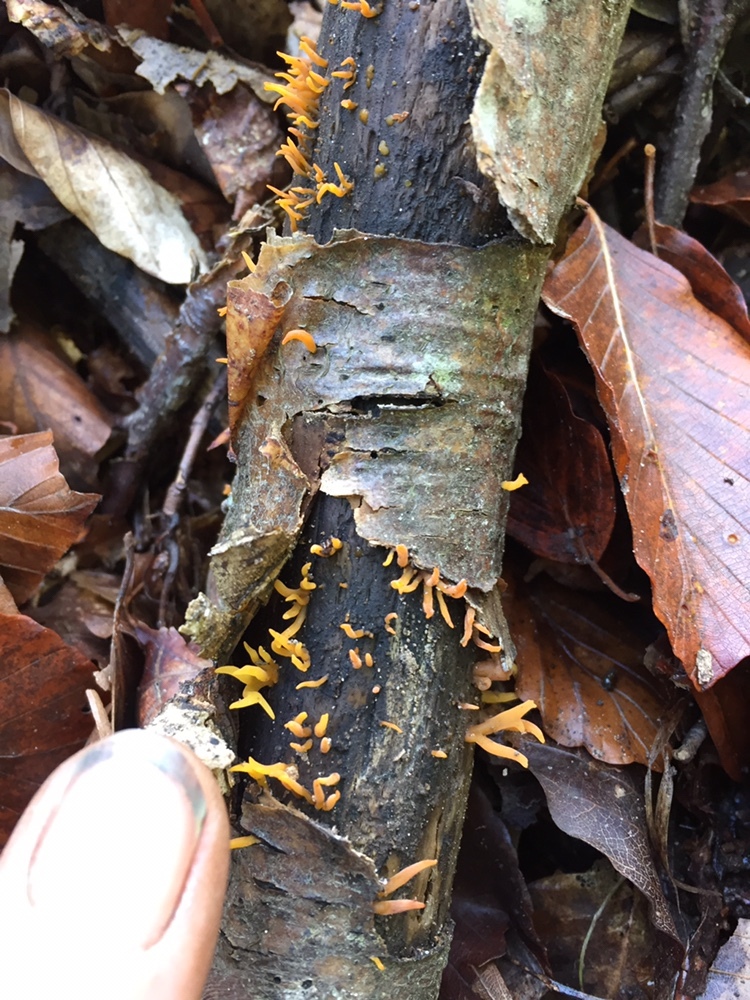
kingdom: Fungi
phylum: Basidiomycota
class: Dacrymycetes
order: Dacrymycetales
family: Dacrymycetaceae
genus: Calocera
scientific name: Calocera cornea
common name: Small stagshorn
